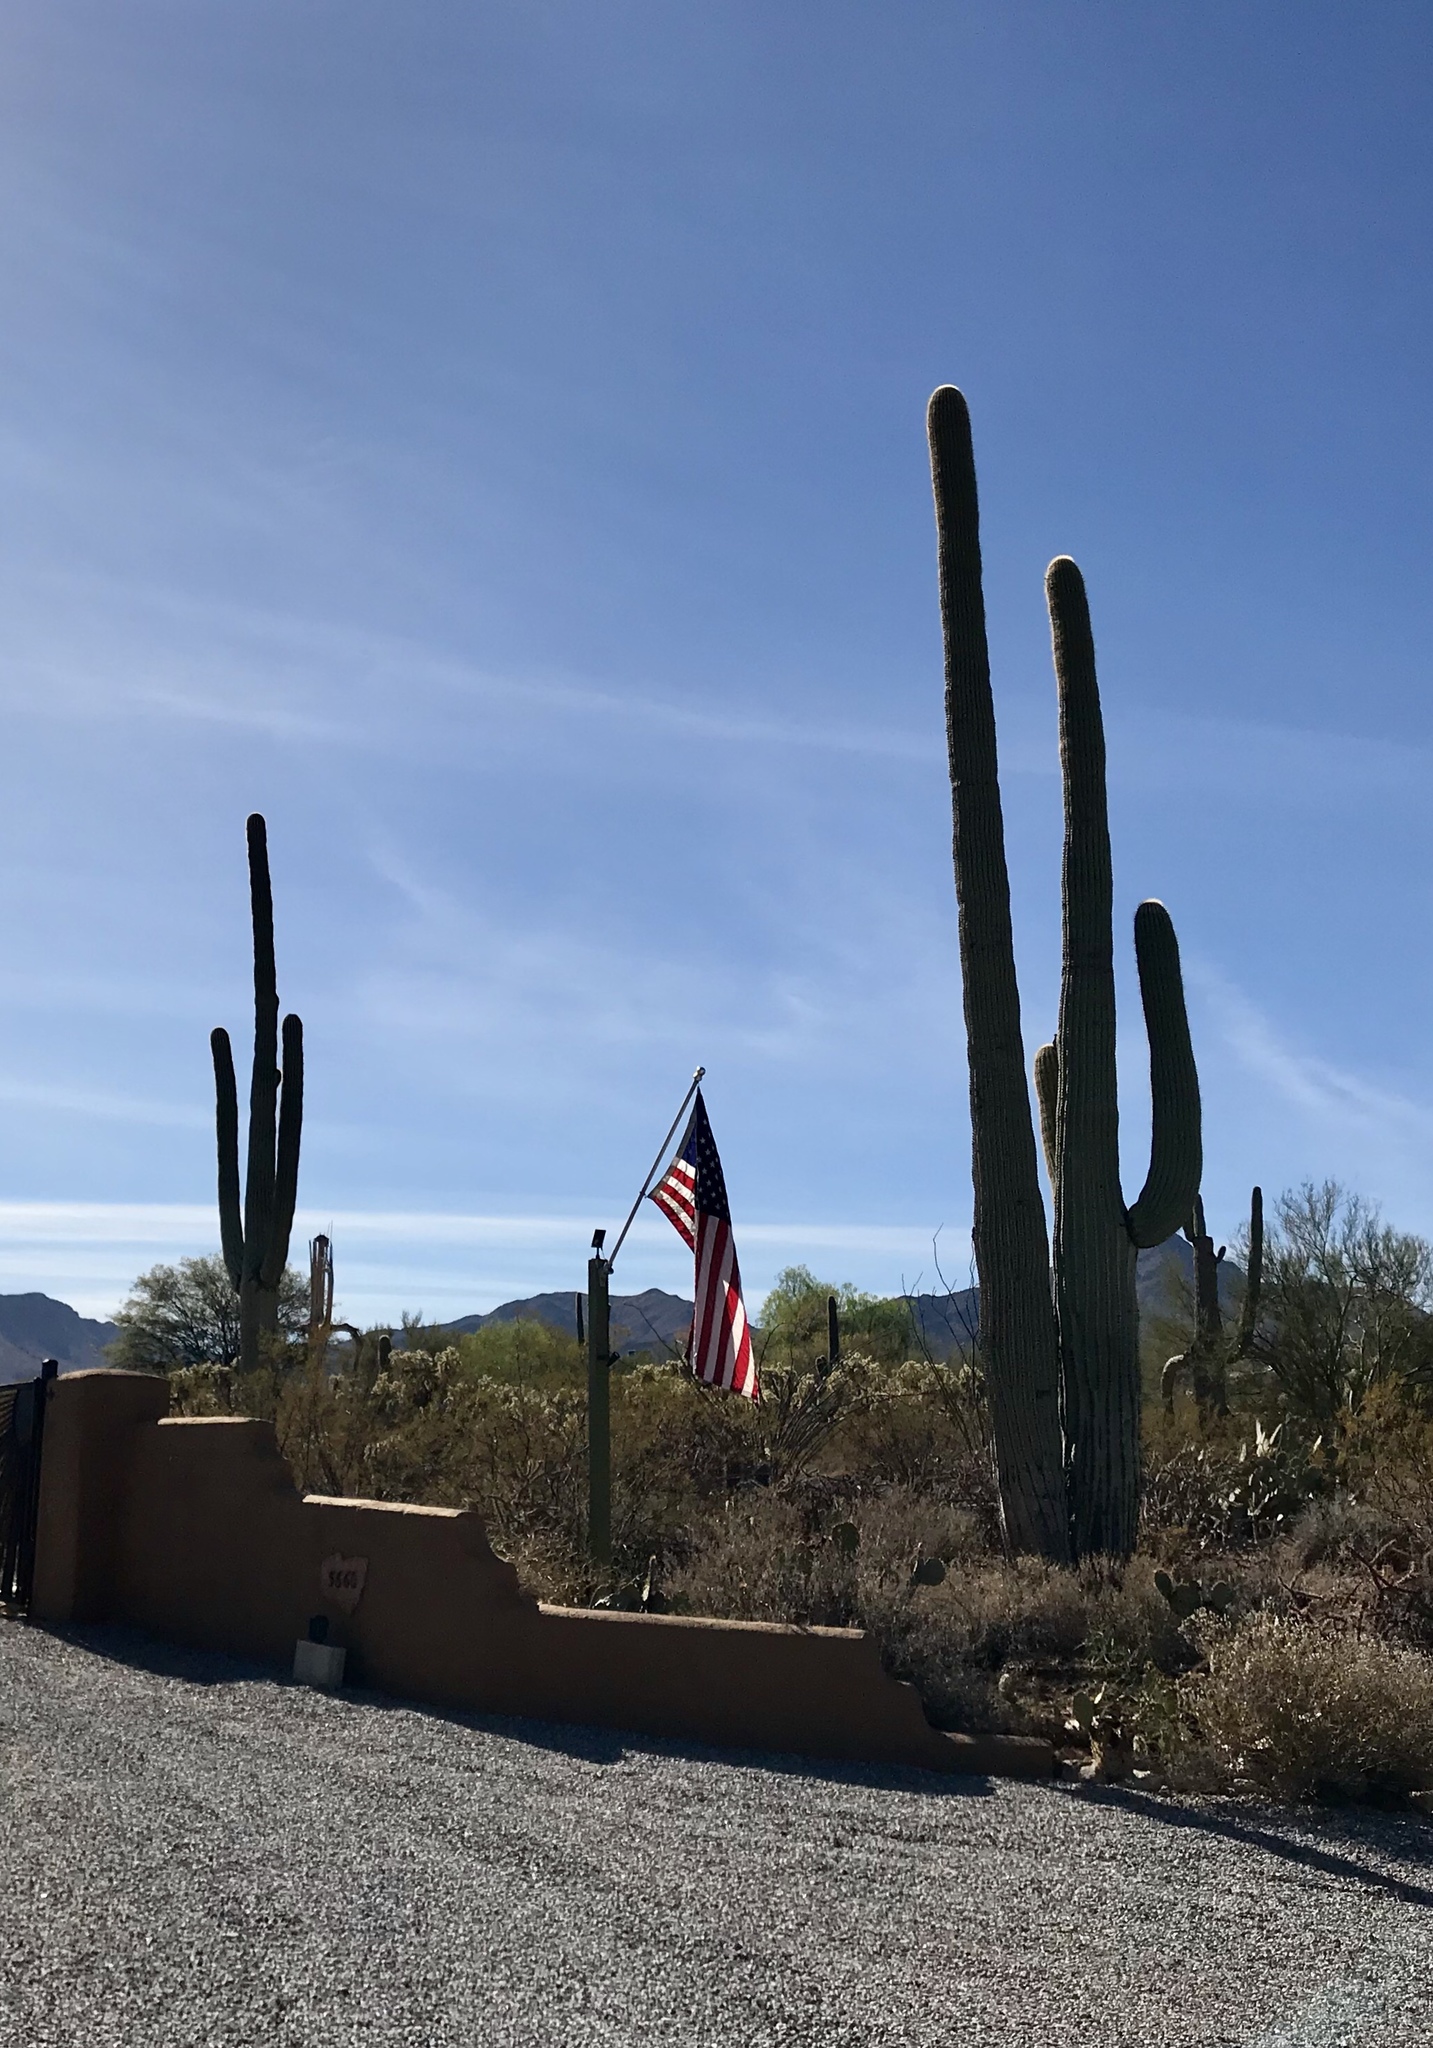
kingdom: Plantae
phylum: Tracheophyta
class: Magnoliopsida
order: Caryophyllales
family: Cactaceae
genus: Carnegiea
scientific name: Carnegiea gigantea
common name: Saguaro
